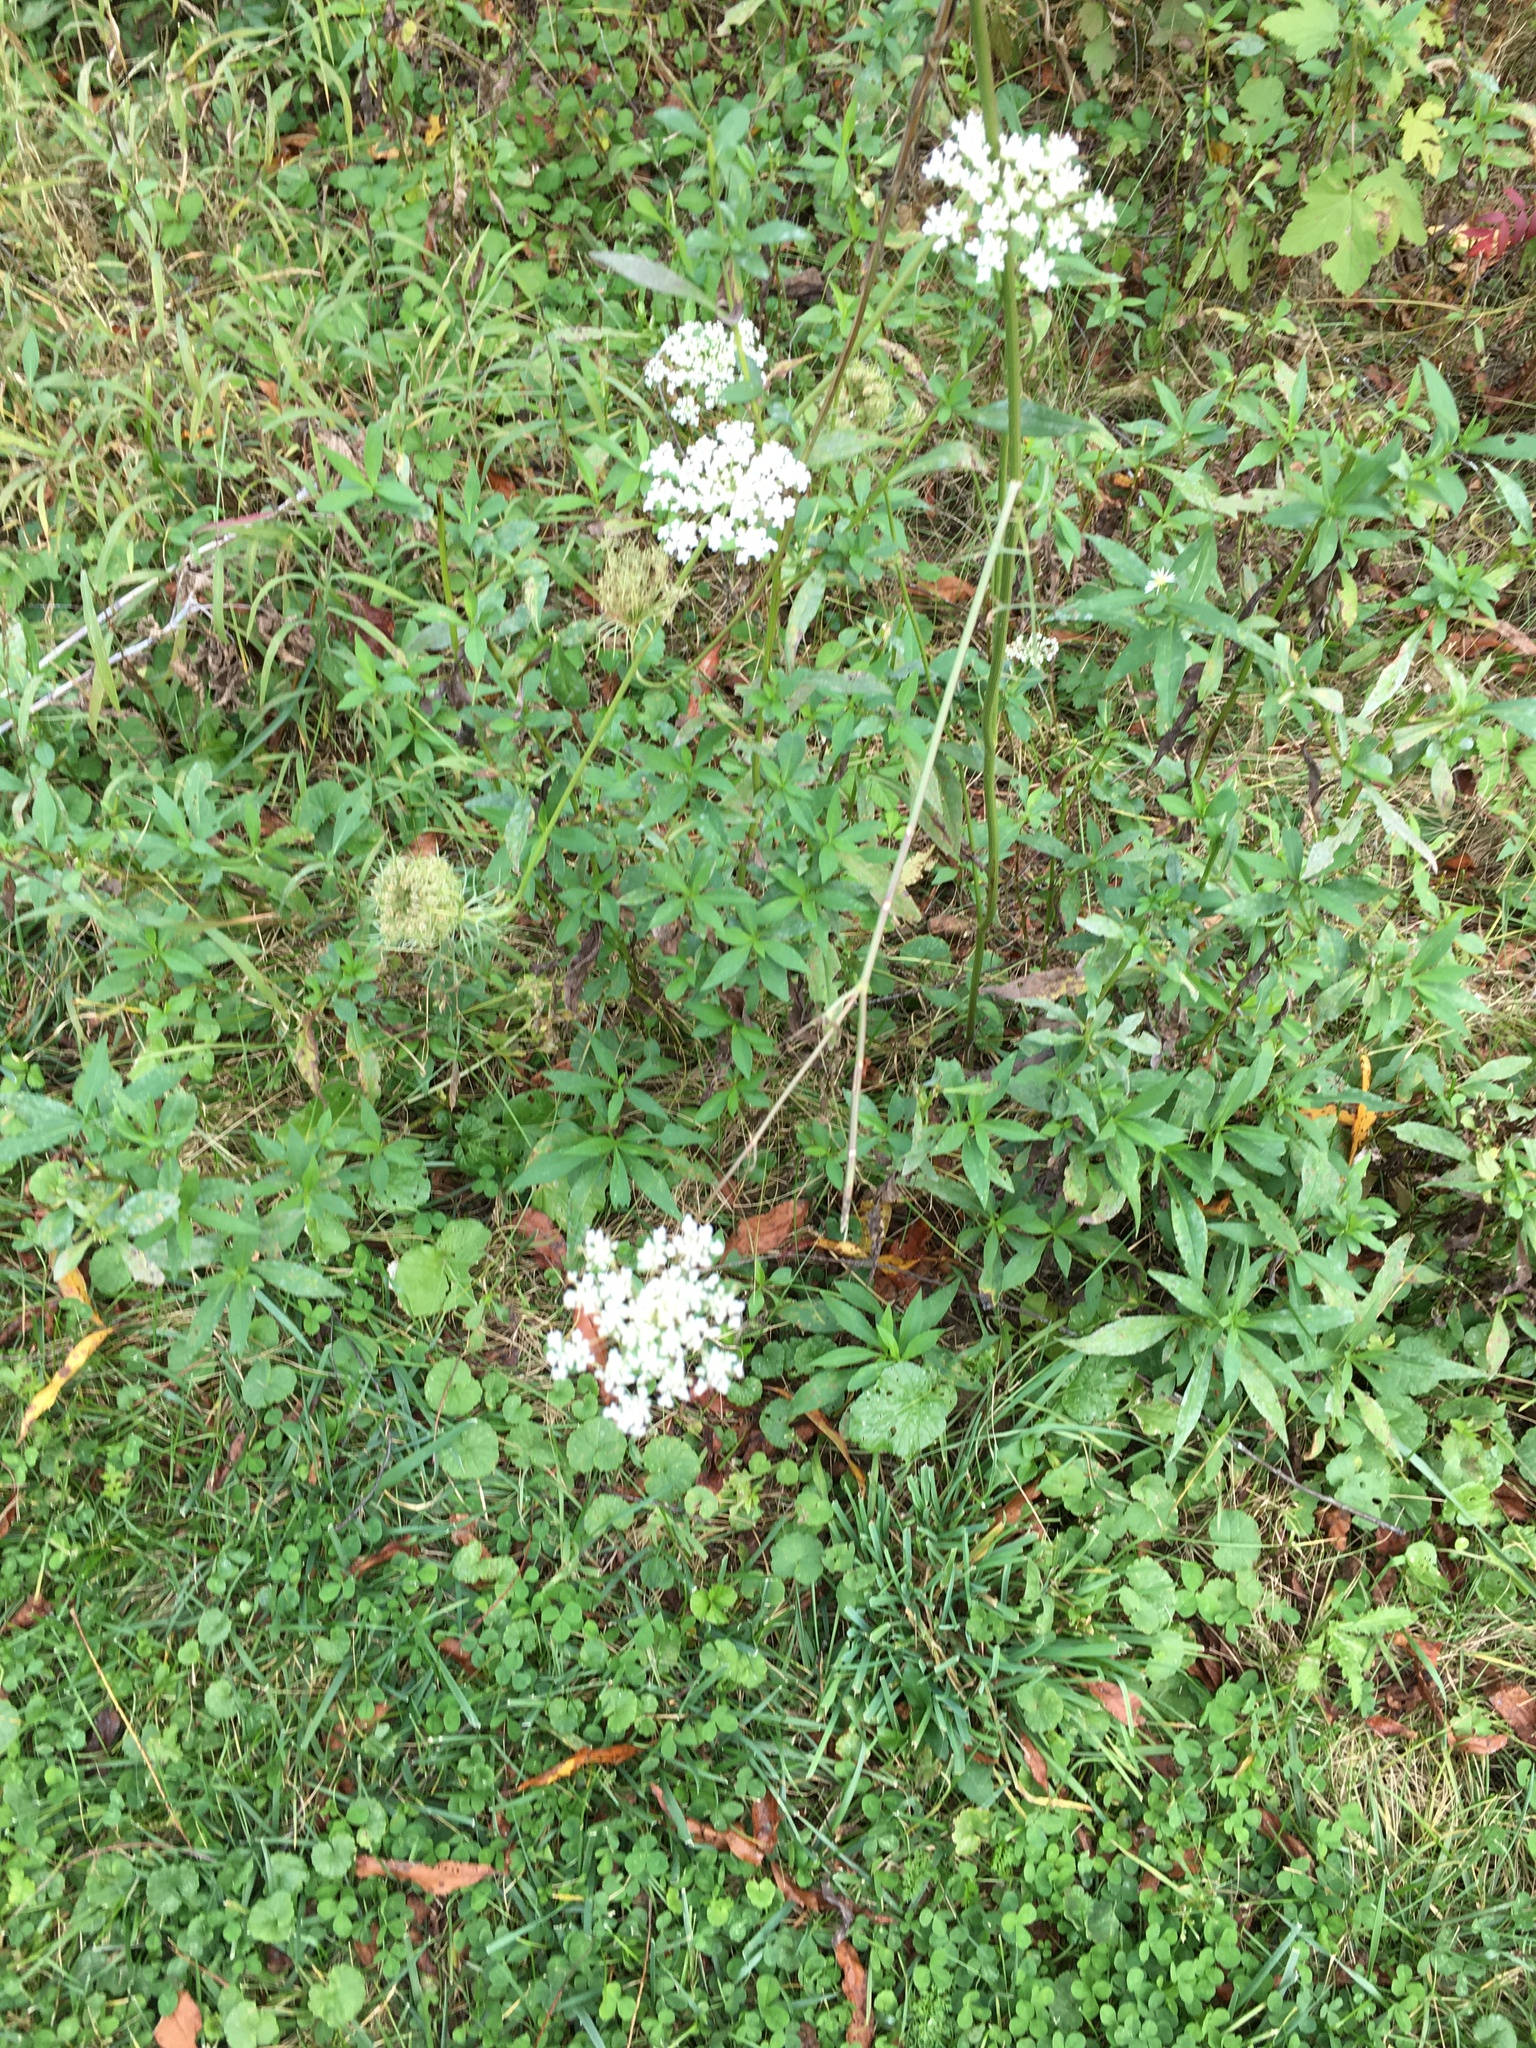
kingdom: Plantae
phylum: Tracheophyta
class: Magnoliopsida
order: Apiales
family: Apiaceae
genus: Daucus
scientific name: Daucus carota
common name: Wild carrot
